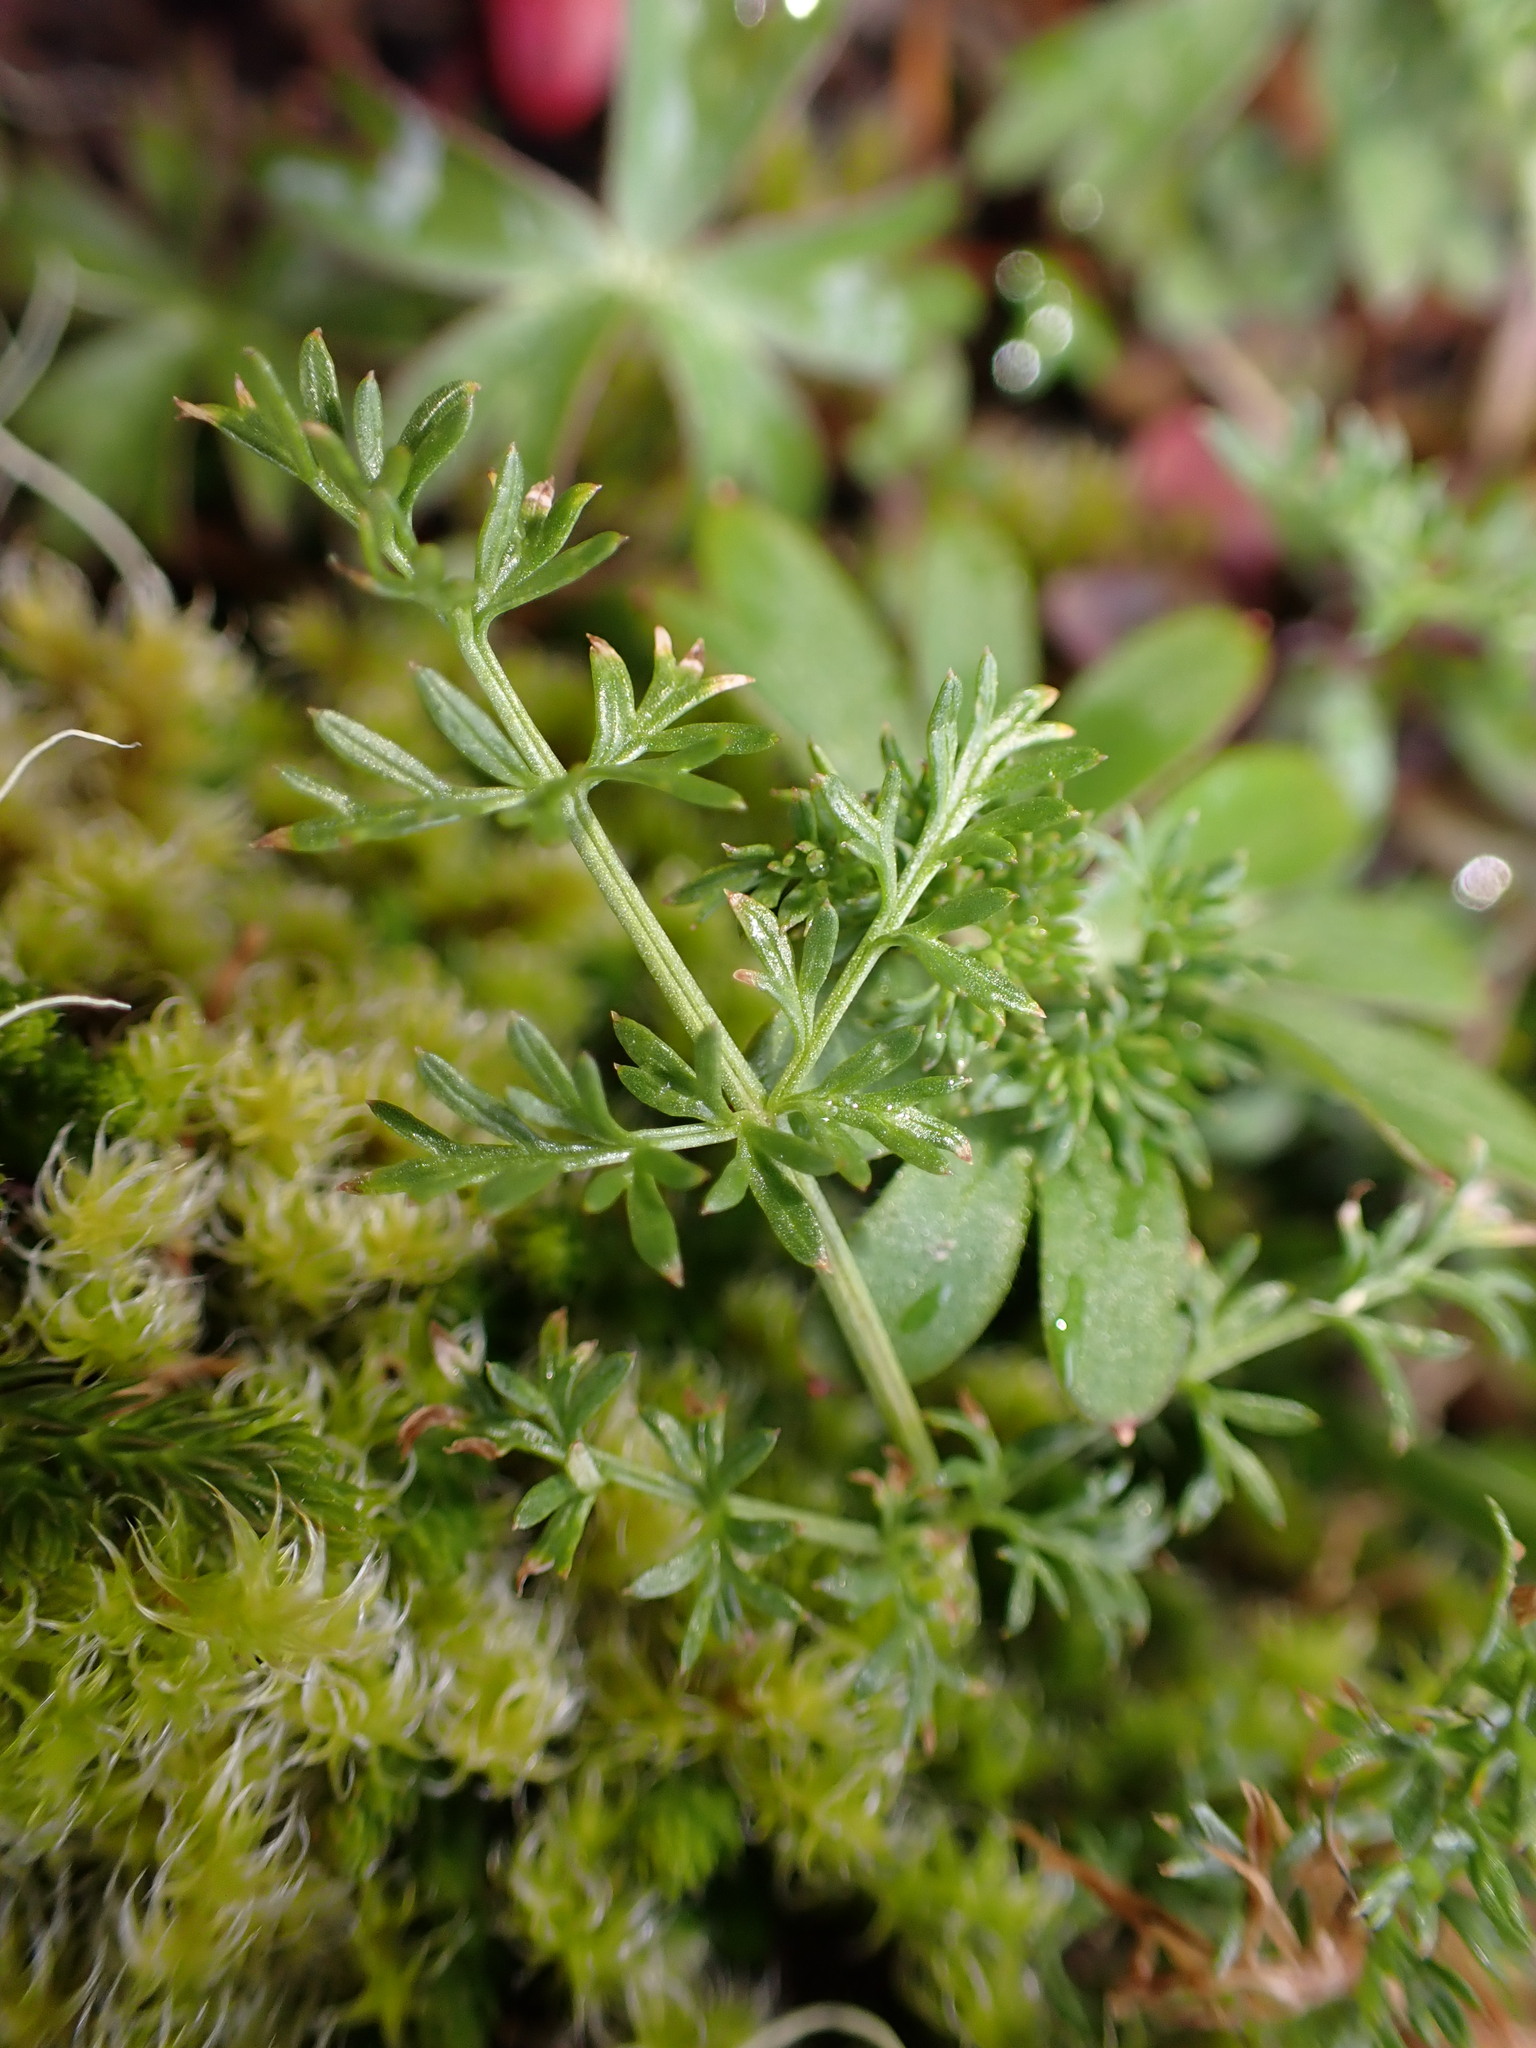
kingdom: Plantae
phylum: Tracheophyta
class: Magnoliopsida
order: Apiales
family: Apiaceae
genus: Lomatium
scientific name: Lomatium utriculatum
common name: Fine-leaf desert-parsley
